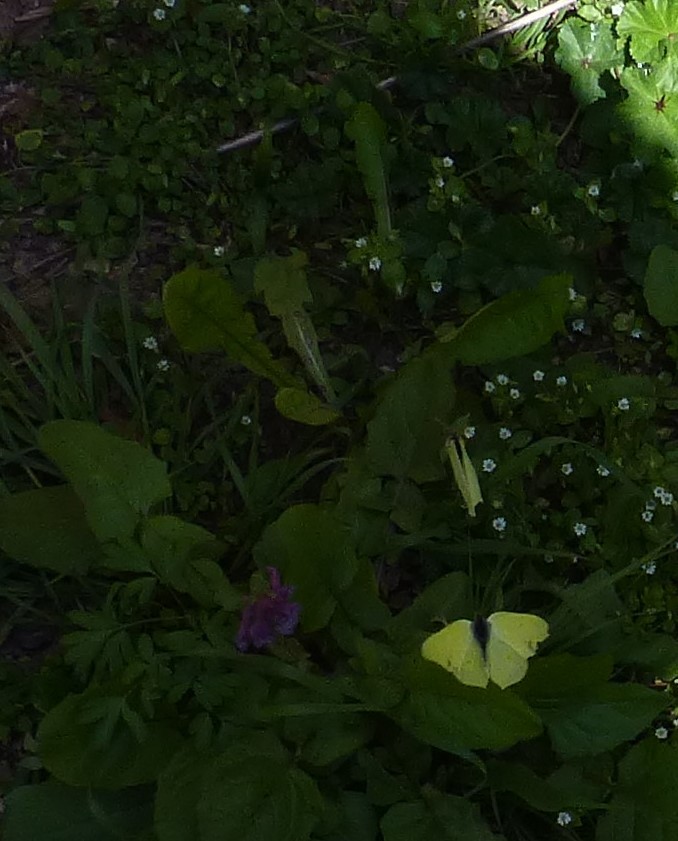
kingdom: Animalia
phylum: Arthropoda
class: Insecta
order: Lepidoptera
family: Pieridae
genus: Gonepteryx
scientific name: Gonepteryx rhamni
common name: Brimstone
